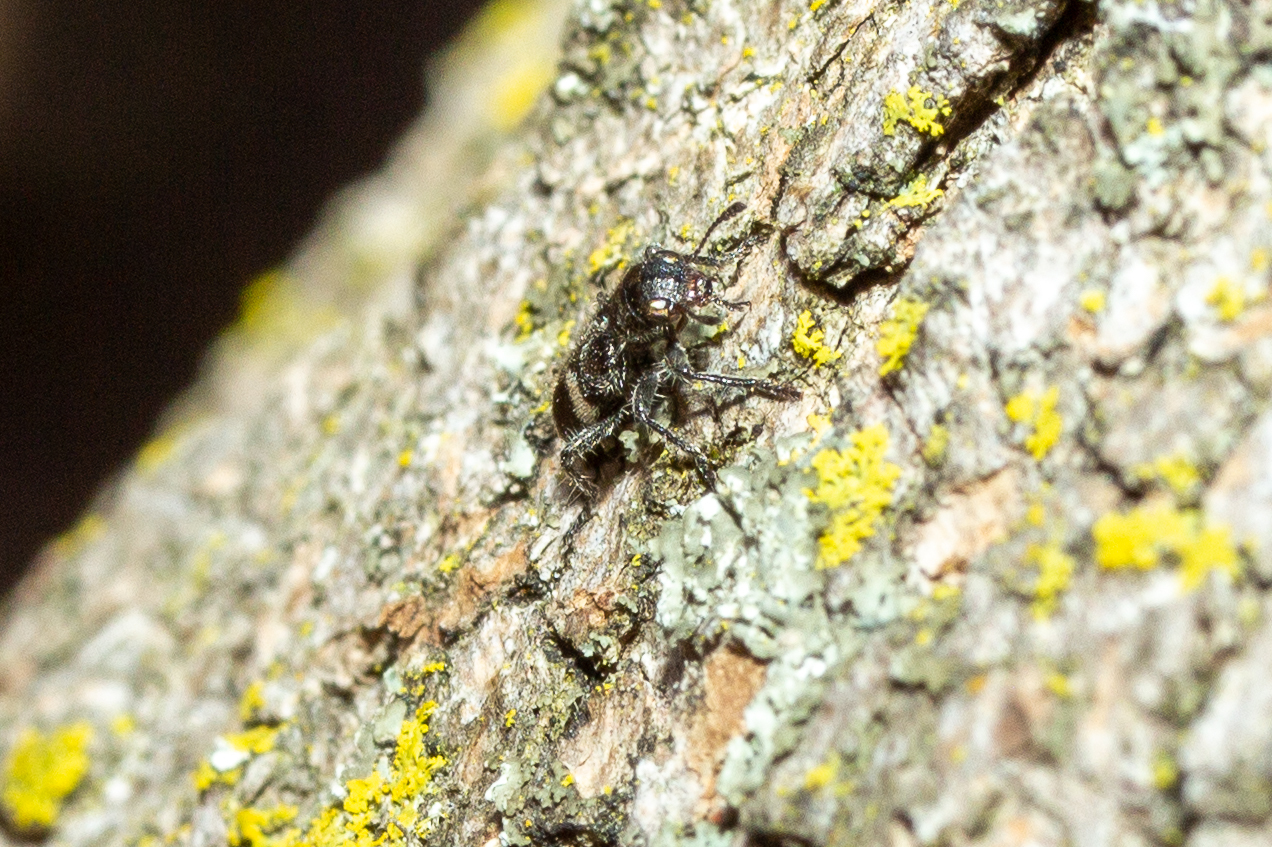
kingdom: Animalia
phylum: Arthropoda
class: Insecta
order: Coleoptera
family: Cleridae
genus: Enoclerus
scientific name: Enoclerus nigripes
